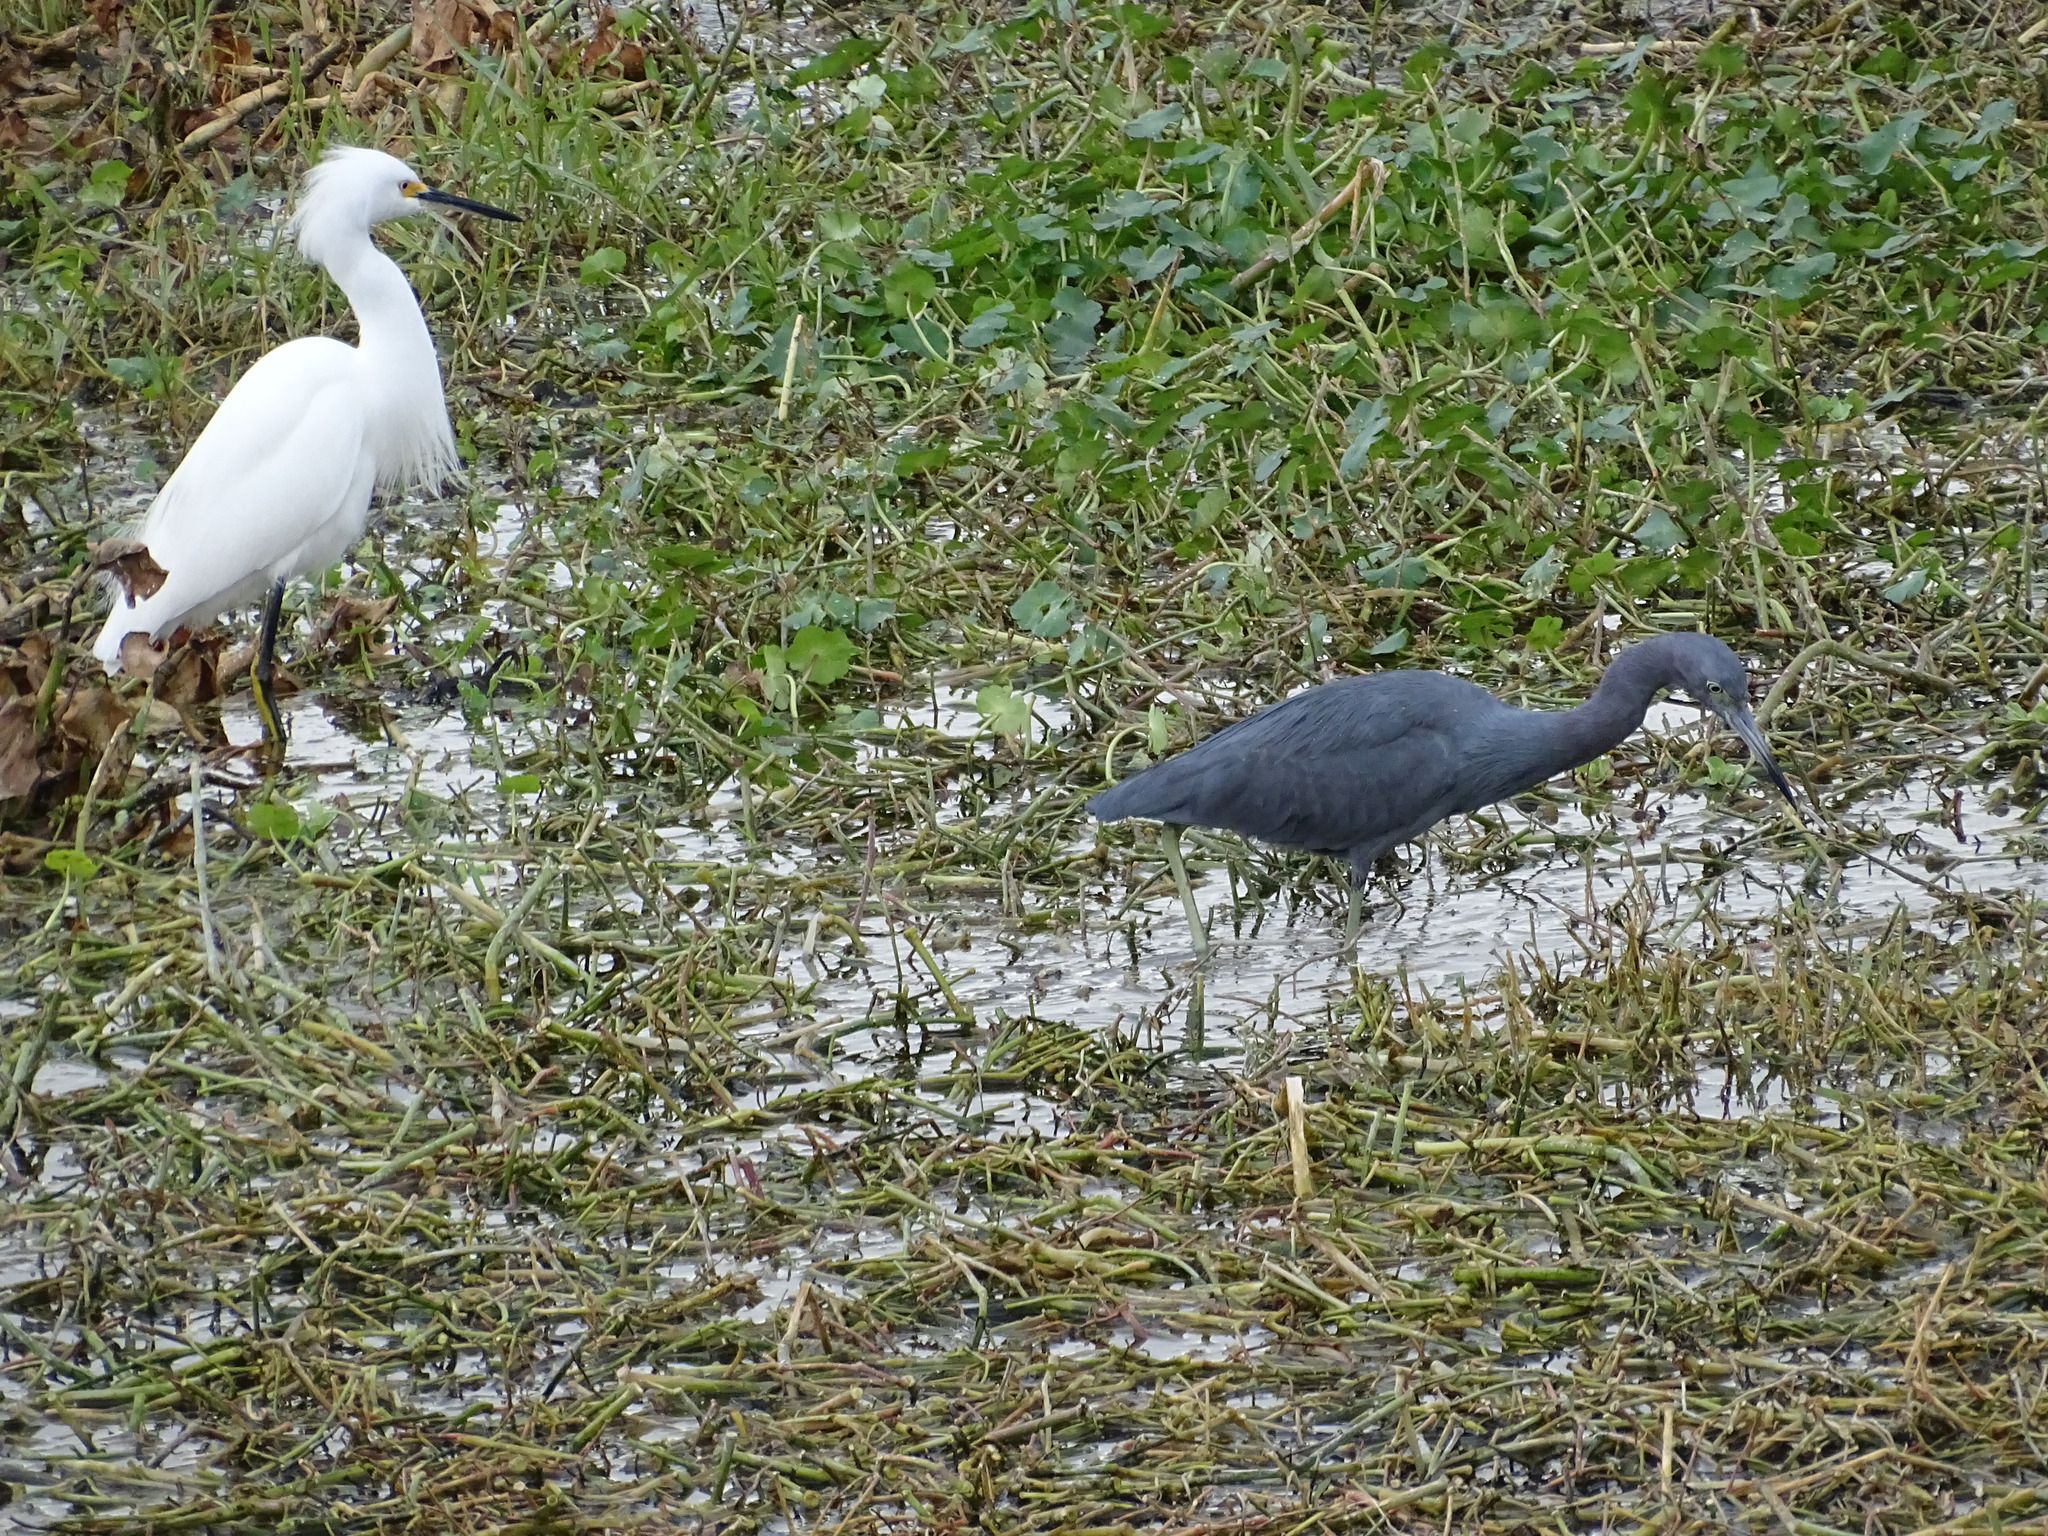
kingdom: Animalia
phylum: Chordata
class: Aves
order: Pelecaniformes
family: Ardeidae
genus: Egretta
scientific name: Egretta caerulea
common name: Little blue heron
